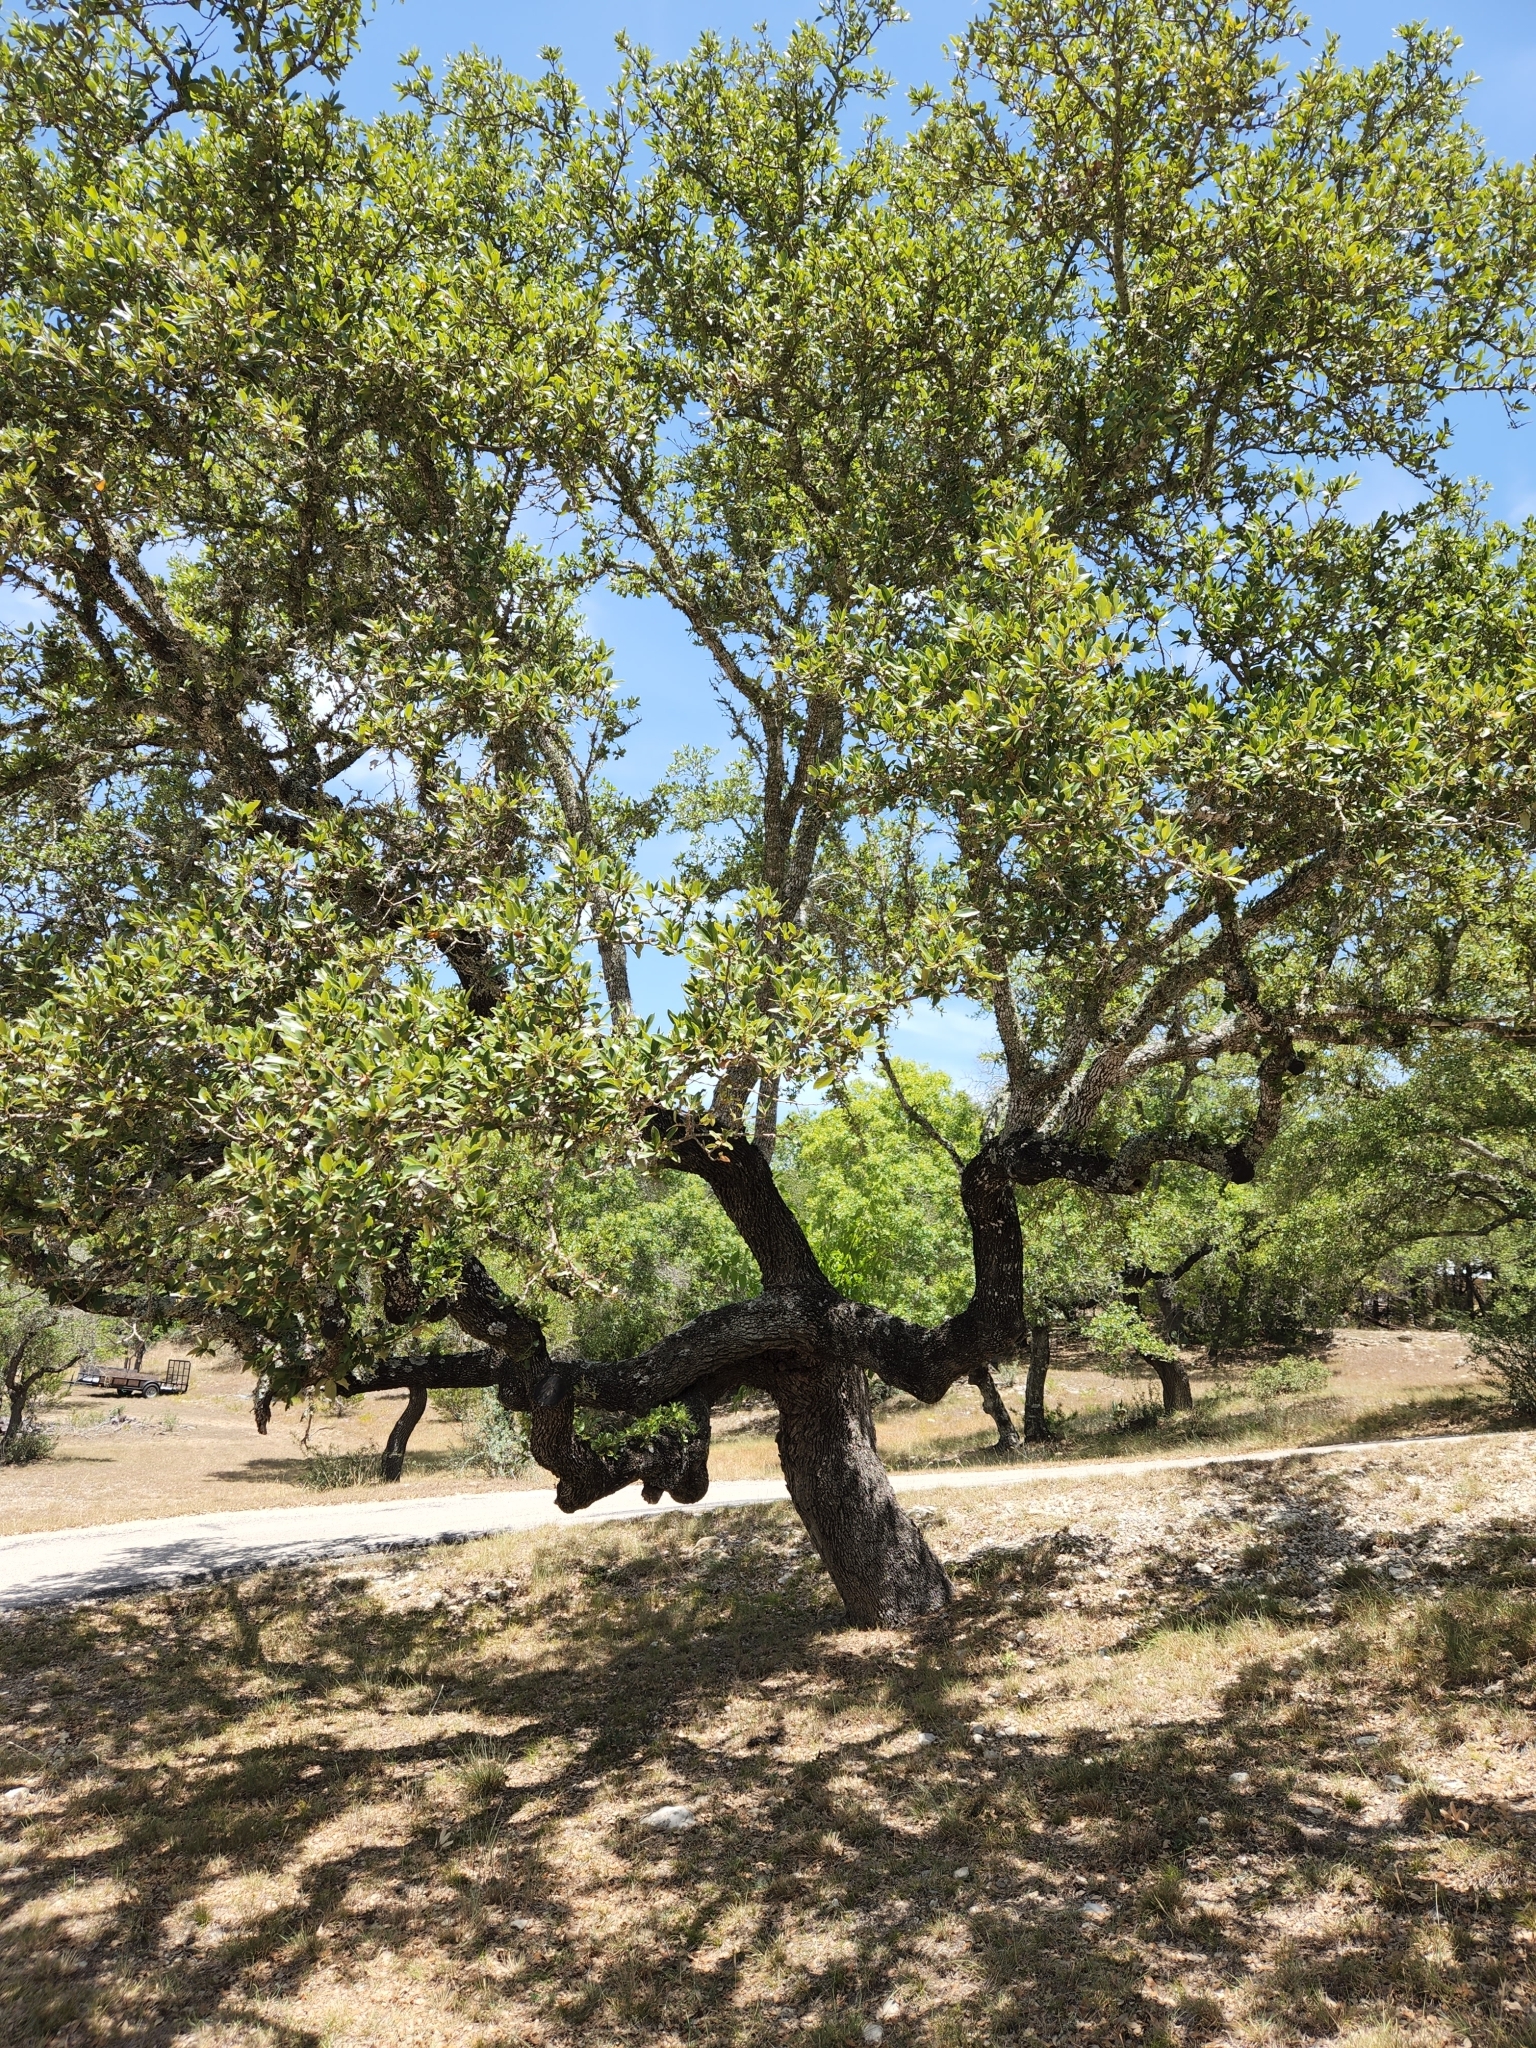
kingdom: Plantae
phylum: Tracheophyta
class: Magnoliopsida
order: Fagales
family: Fagaceae
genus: Quercus
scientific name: Quercus fusiformis
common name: Texas live oak
